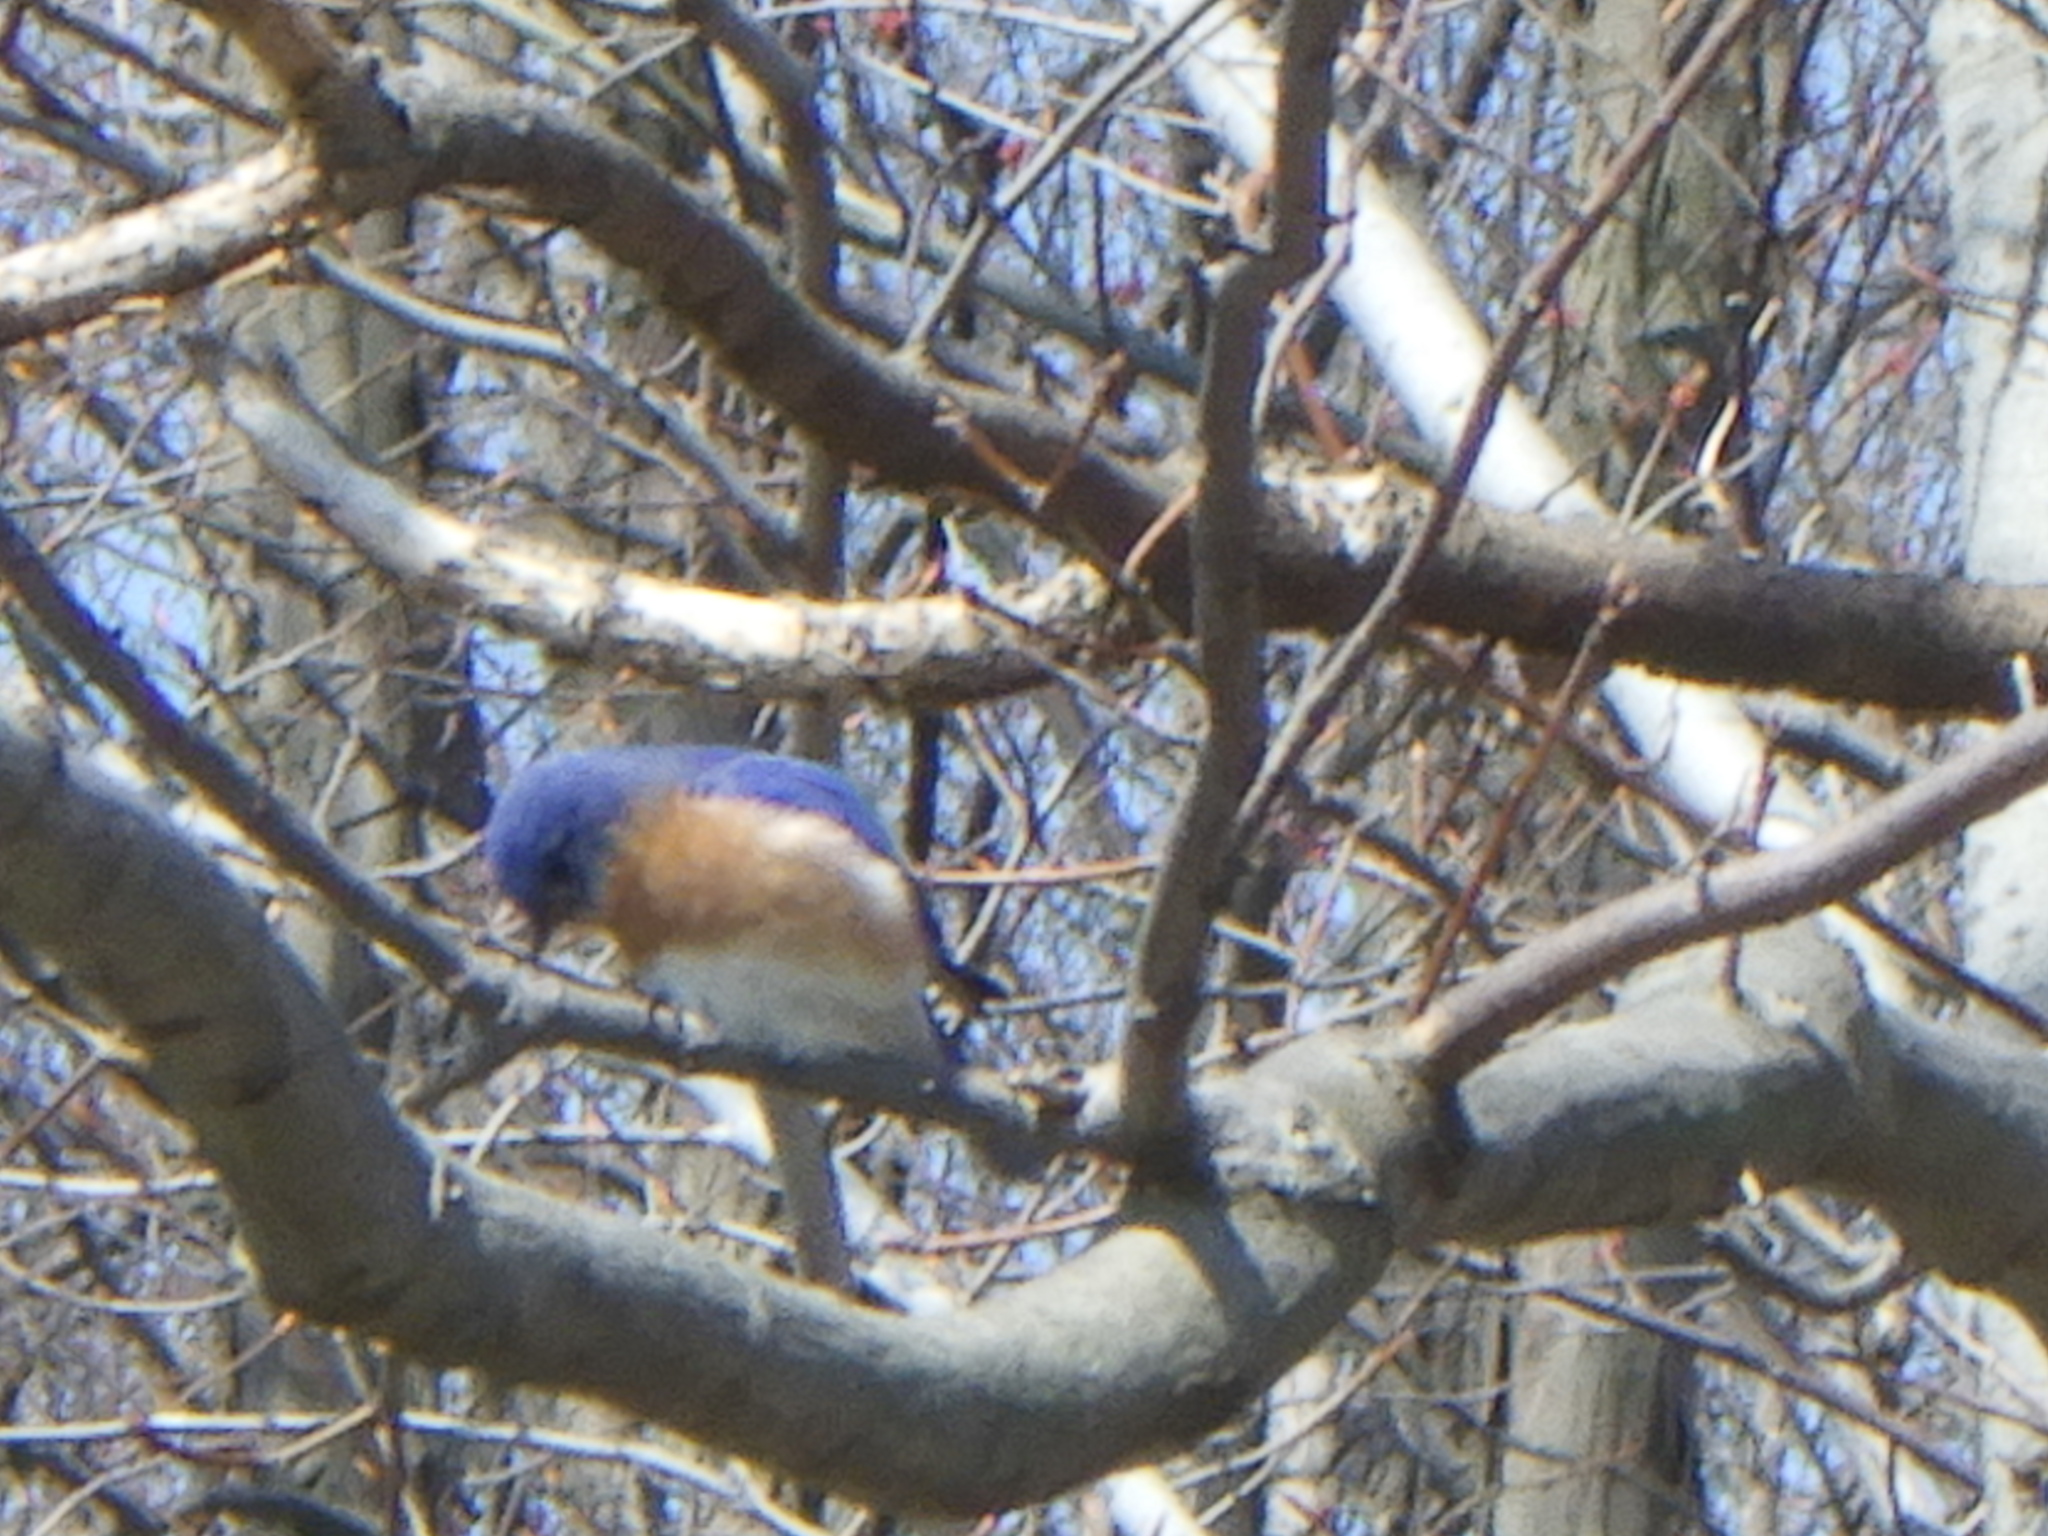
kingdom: Animalia
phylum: Chordata
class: Aves
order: Passeriformes
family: Turdidae
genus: Sialia
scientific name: Sialia sialis
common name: Eastern bluebird
